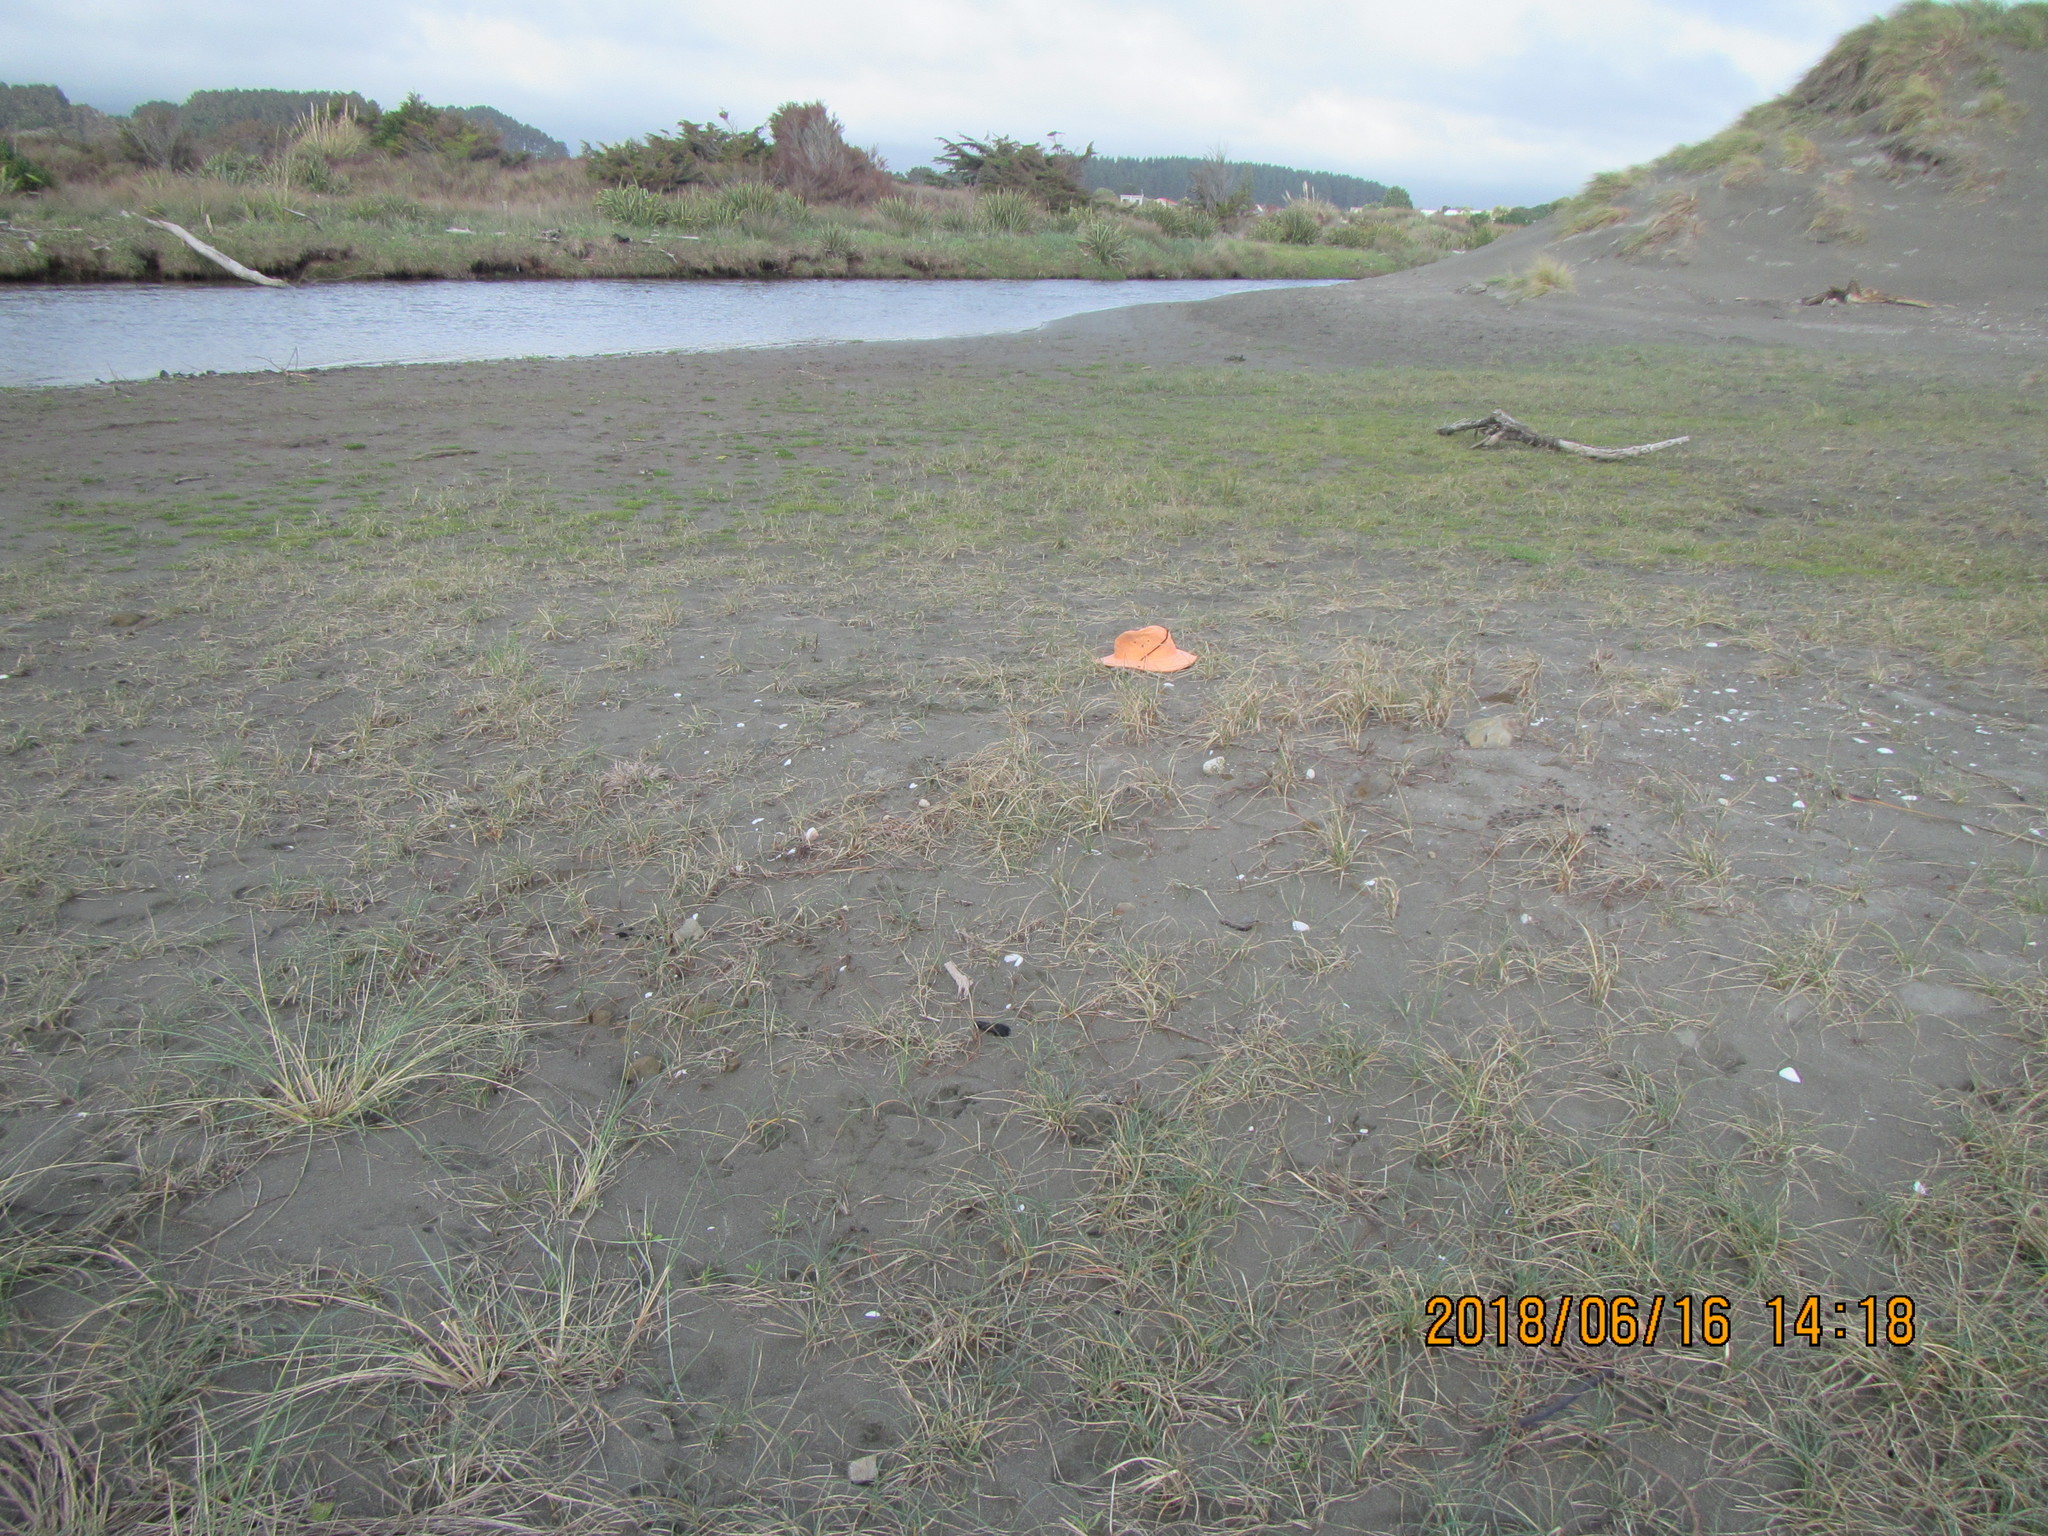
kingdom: Animalia
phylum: Arthropoda
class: Arachnida
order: Araneae
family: Lycosidae
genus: Anoteropsis
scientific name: Anoteropsis litoralis
